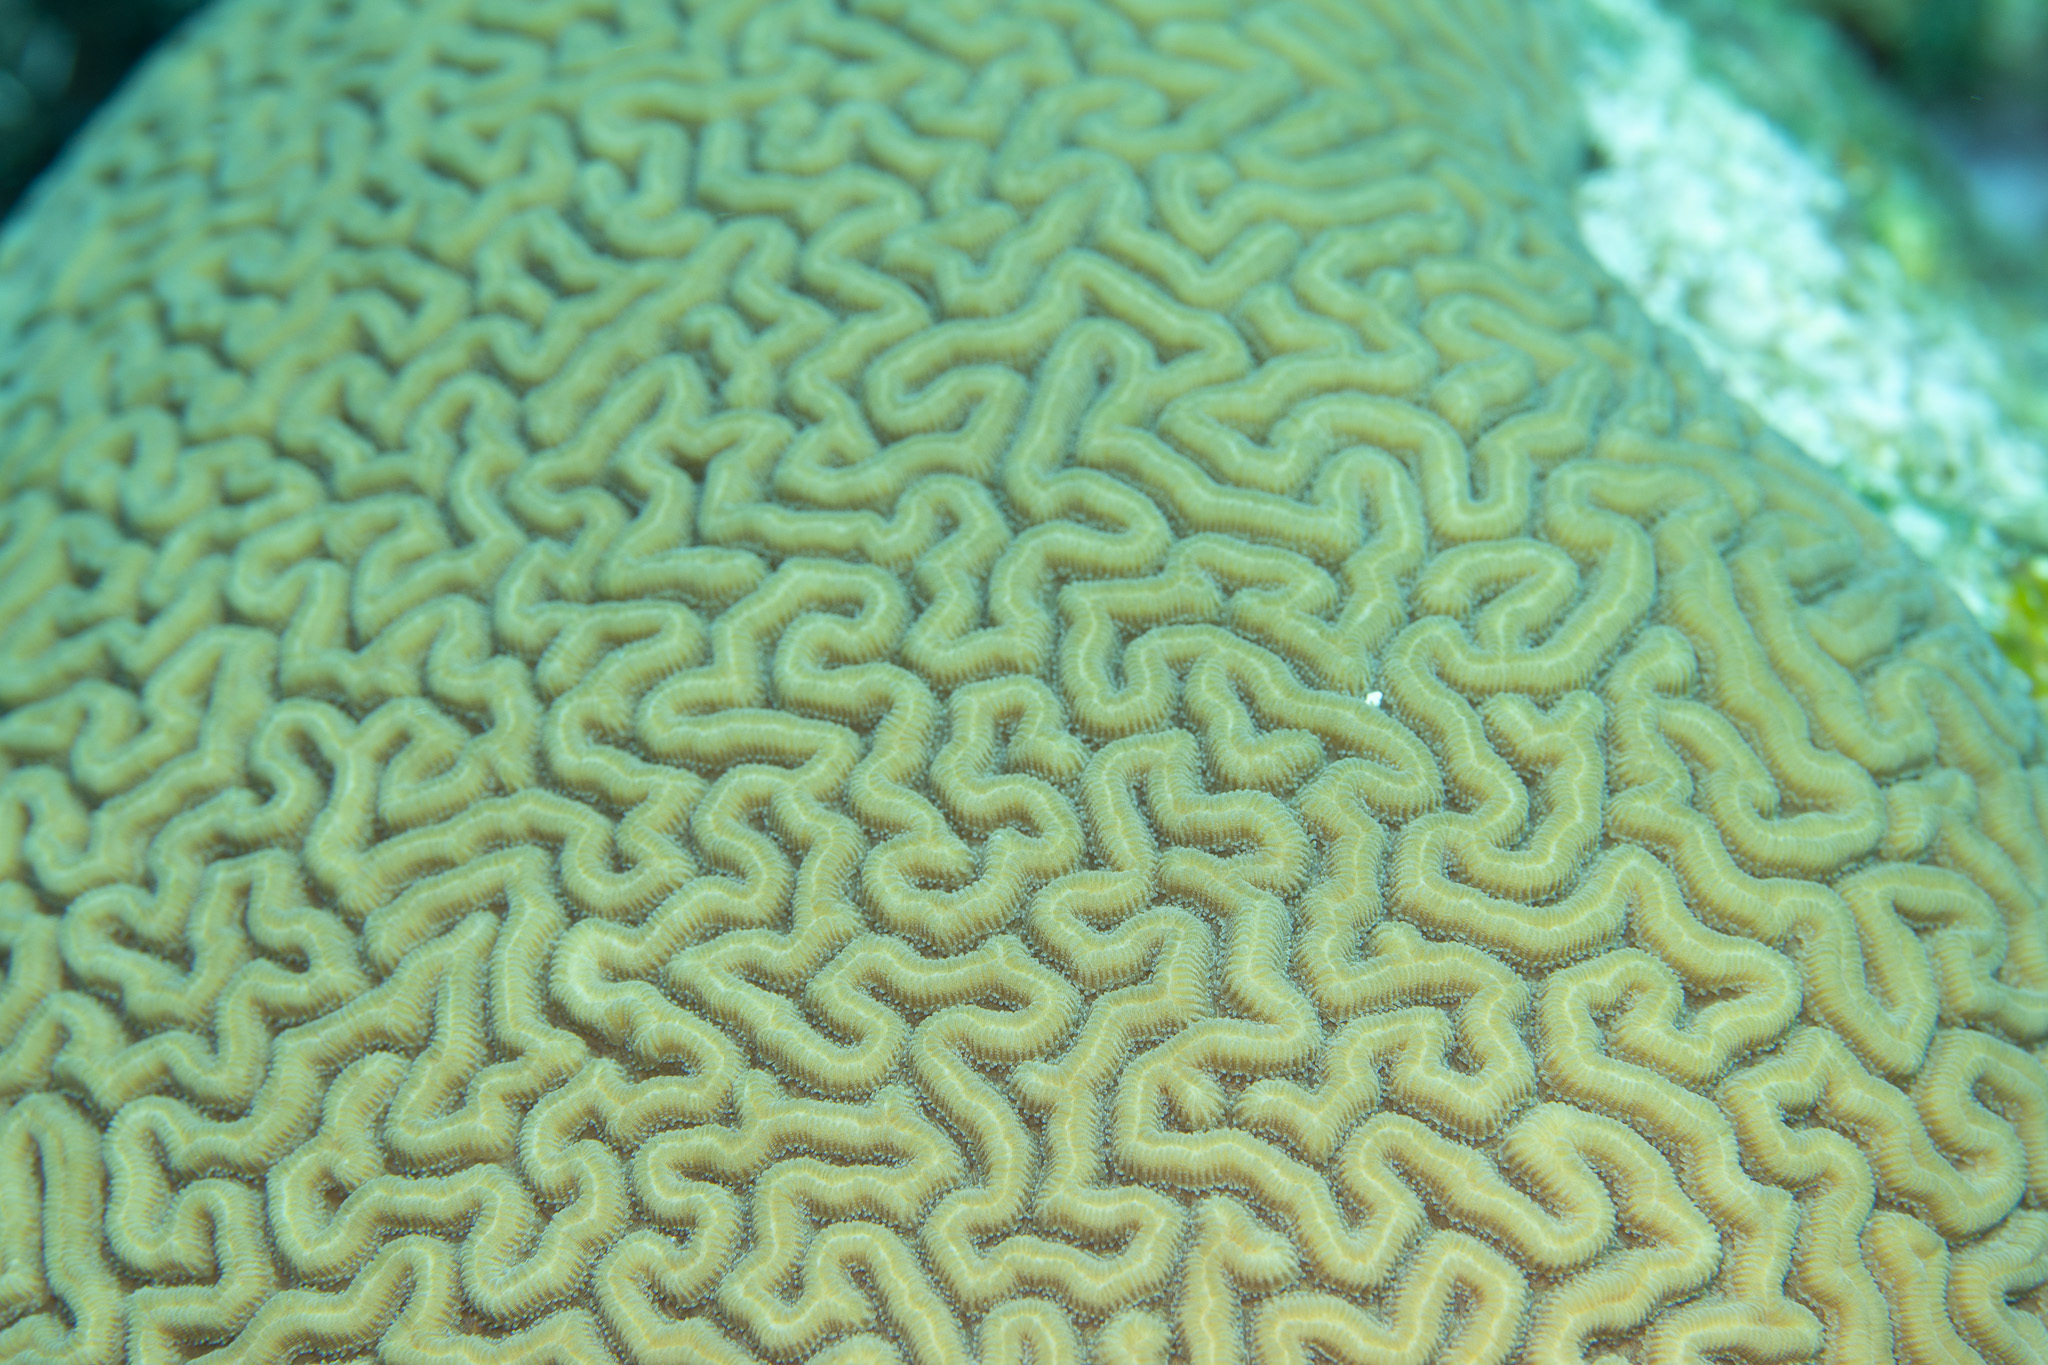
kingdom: Animalia
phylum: Cnidaria
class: Anthozoa
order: Scleractinia
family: Faviidae
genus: Diploria
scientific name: Diploria labyrinthiformis
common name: Grooved brain coral
